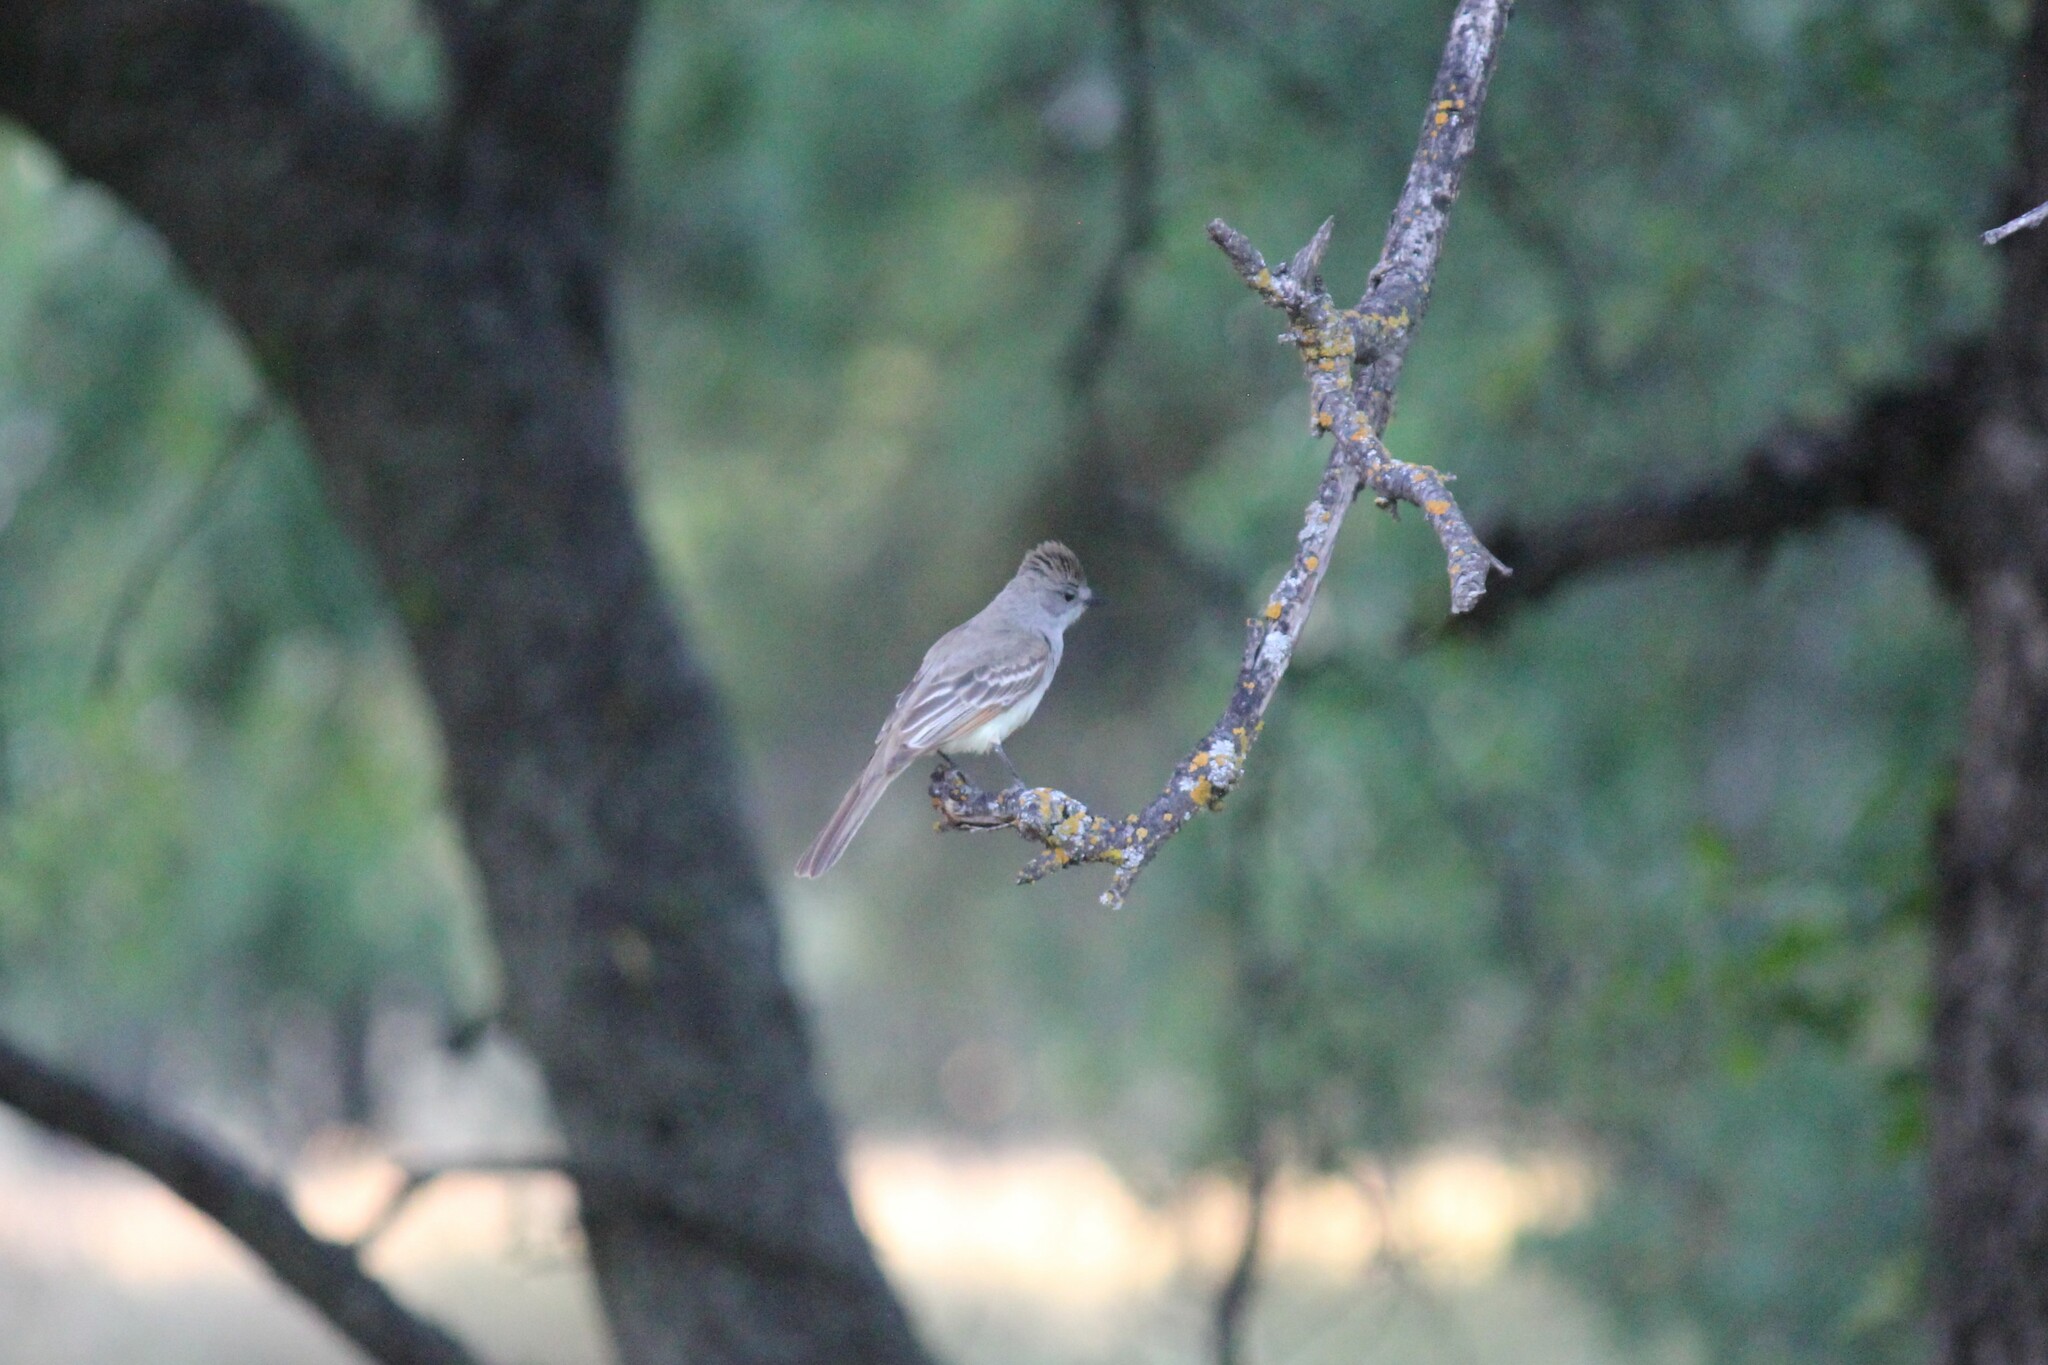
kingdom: Animalia
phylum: Chordata
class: Aves
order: Passeriformes
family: Tyrannidae
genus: Myiarchus
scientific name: Myiarchus cinerascens
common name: Ash-throated flycatcher
